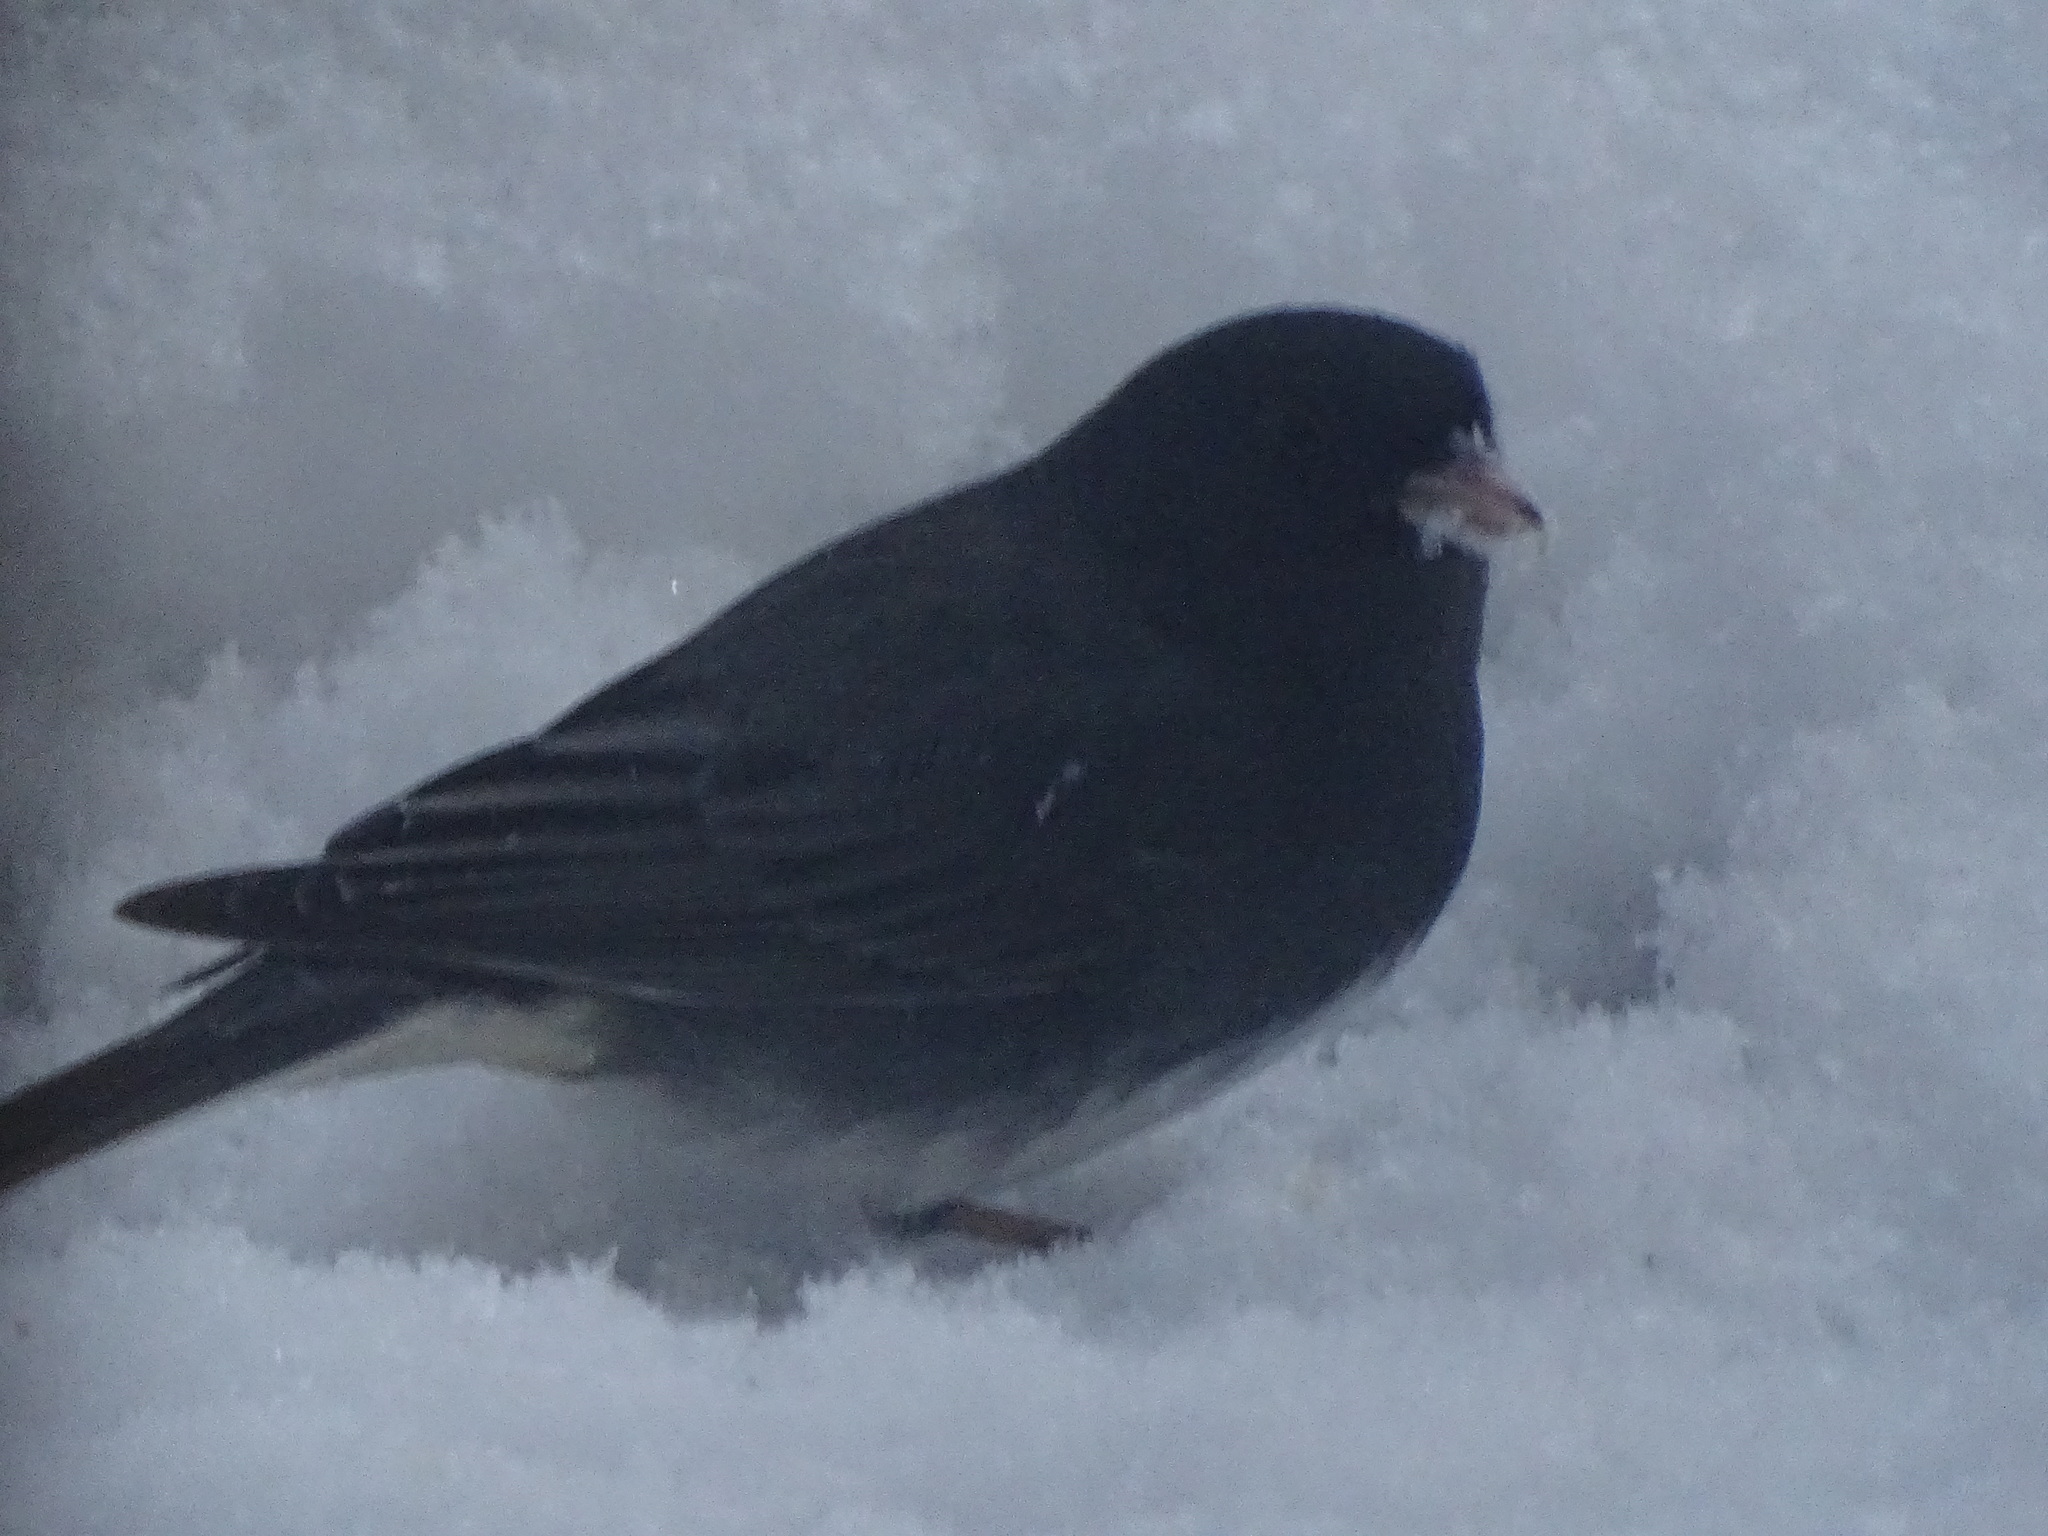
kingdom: Animalia
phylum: Chordata
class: Aves
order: Passeriformes
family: Passerellidae
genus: Junco
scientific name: Junco hyemalis
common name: Dark-eyed junco
